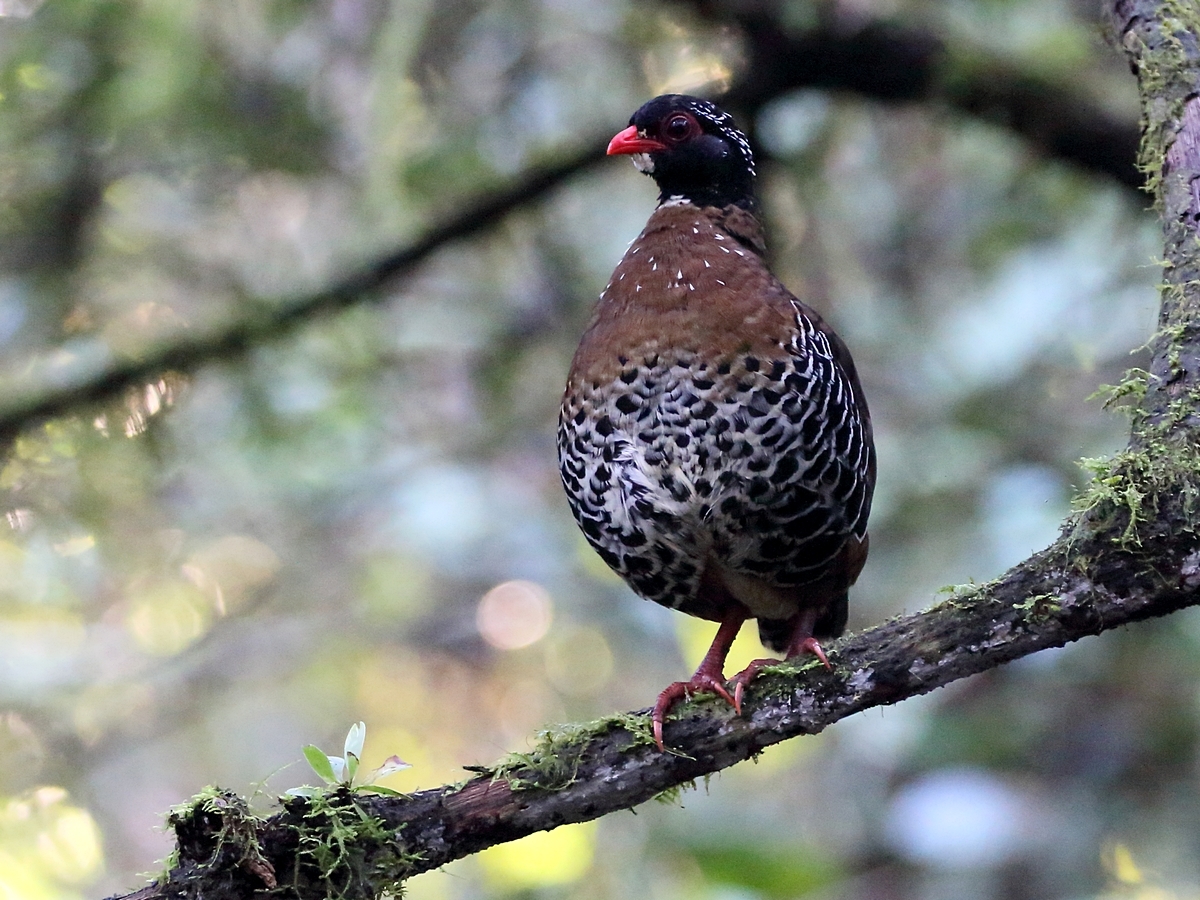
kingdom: Animalia
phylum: Chordata
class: Aves
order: Galliformes
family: Phasianidae
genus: Arborophila
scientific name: Arborophila rubrirostris
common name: Red-billed partridge
